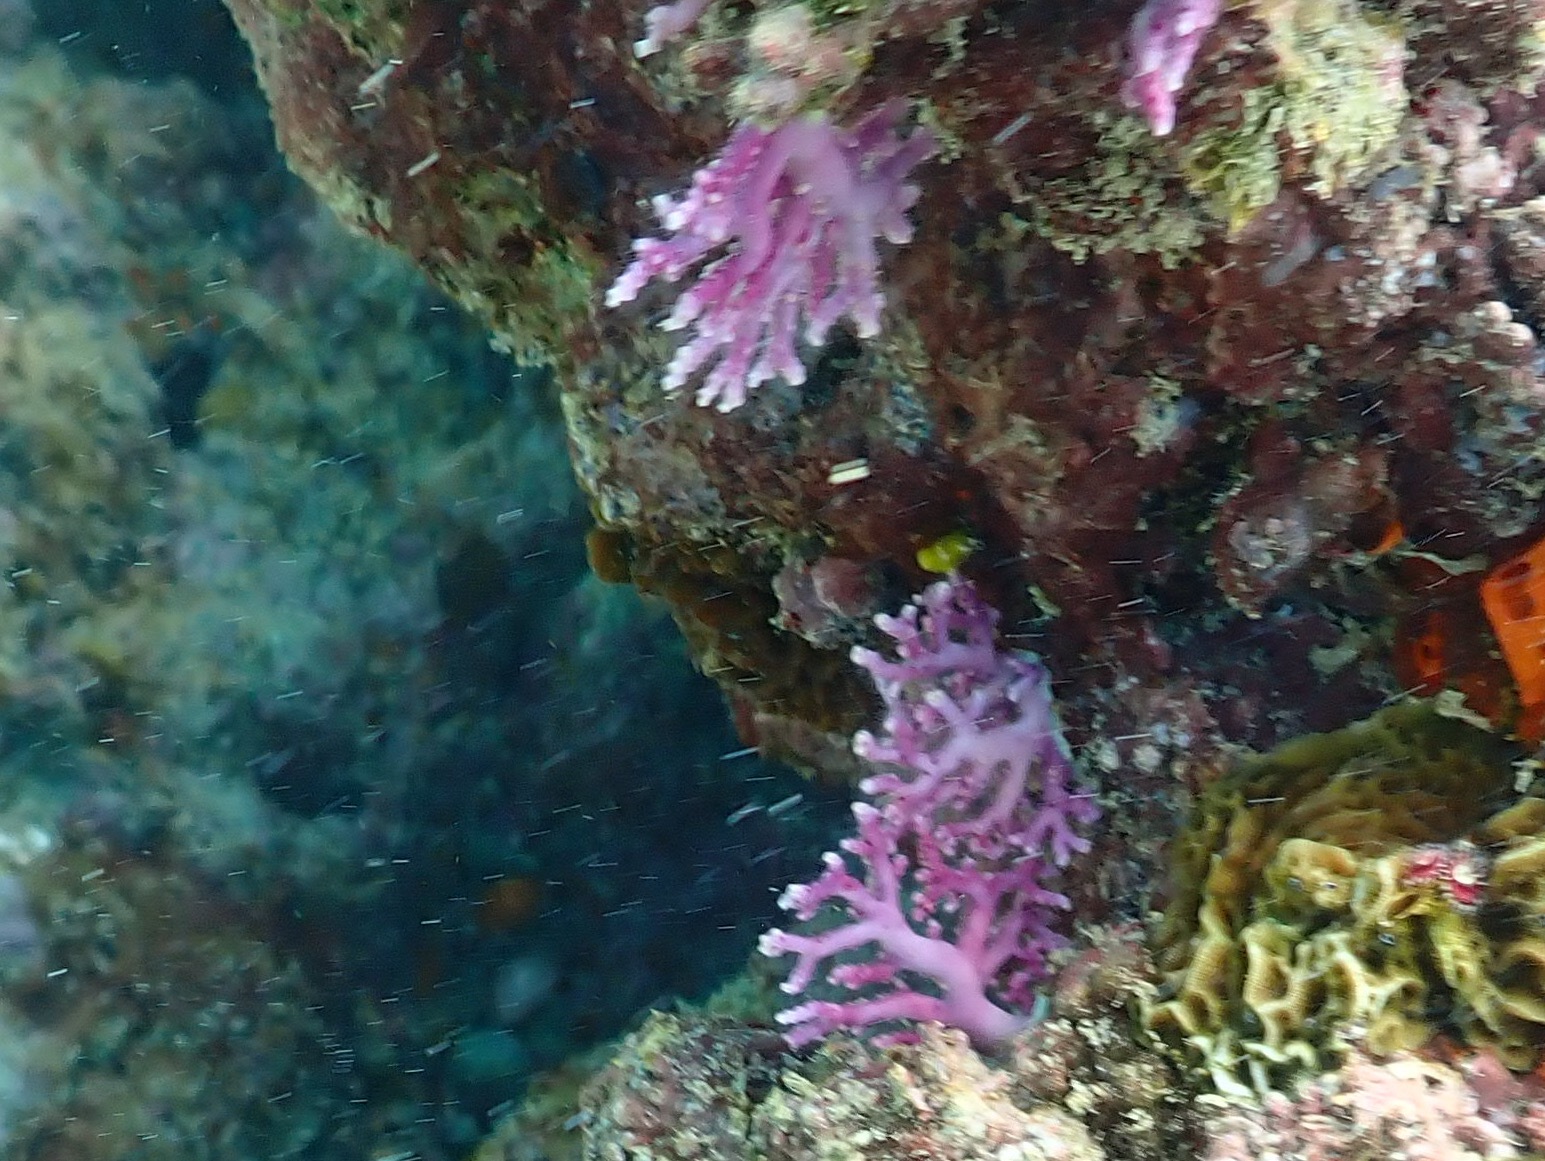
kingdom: Animalia
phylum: Cnidaria
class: Hydrozoa
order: Anthoathecata
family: Stylasteridae
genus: Stylaster
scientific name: Stylaster roseus
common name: Rose lace coral
